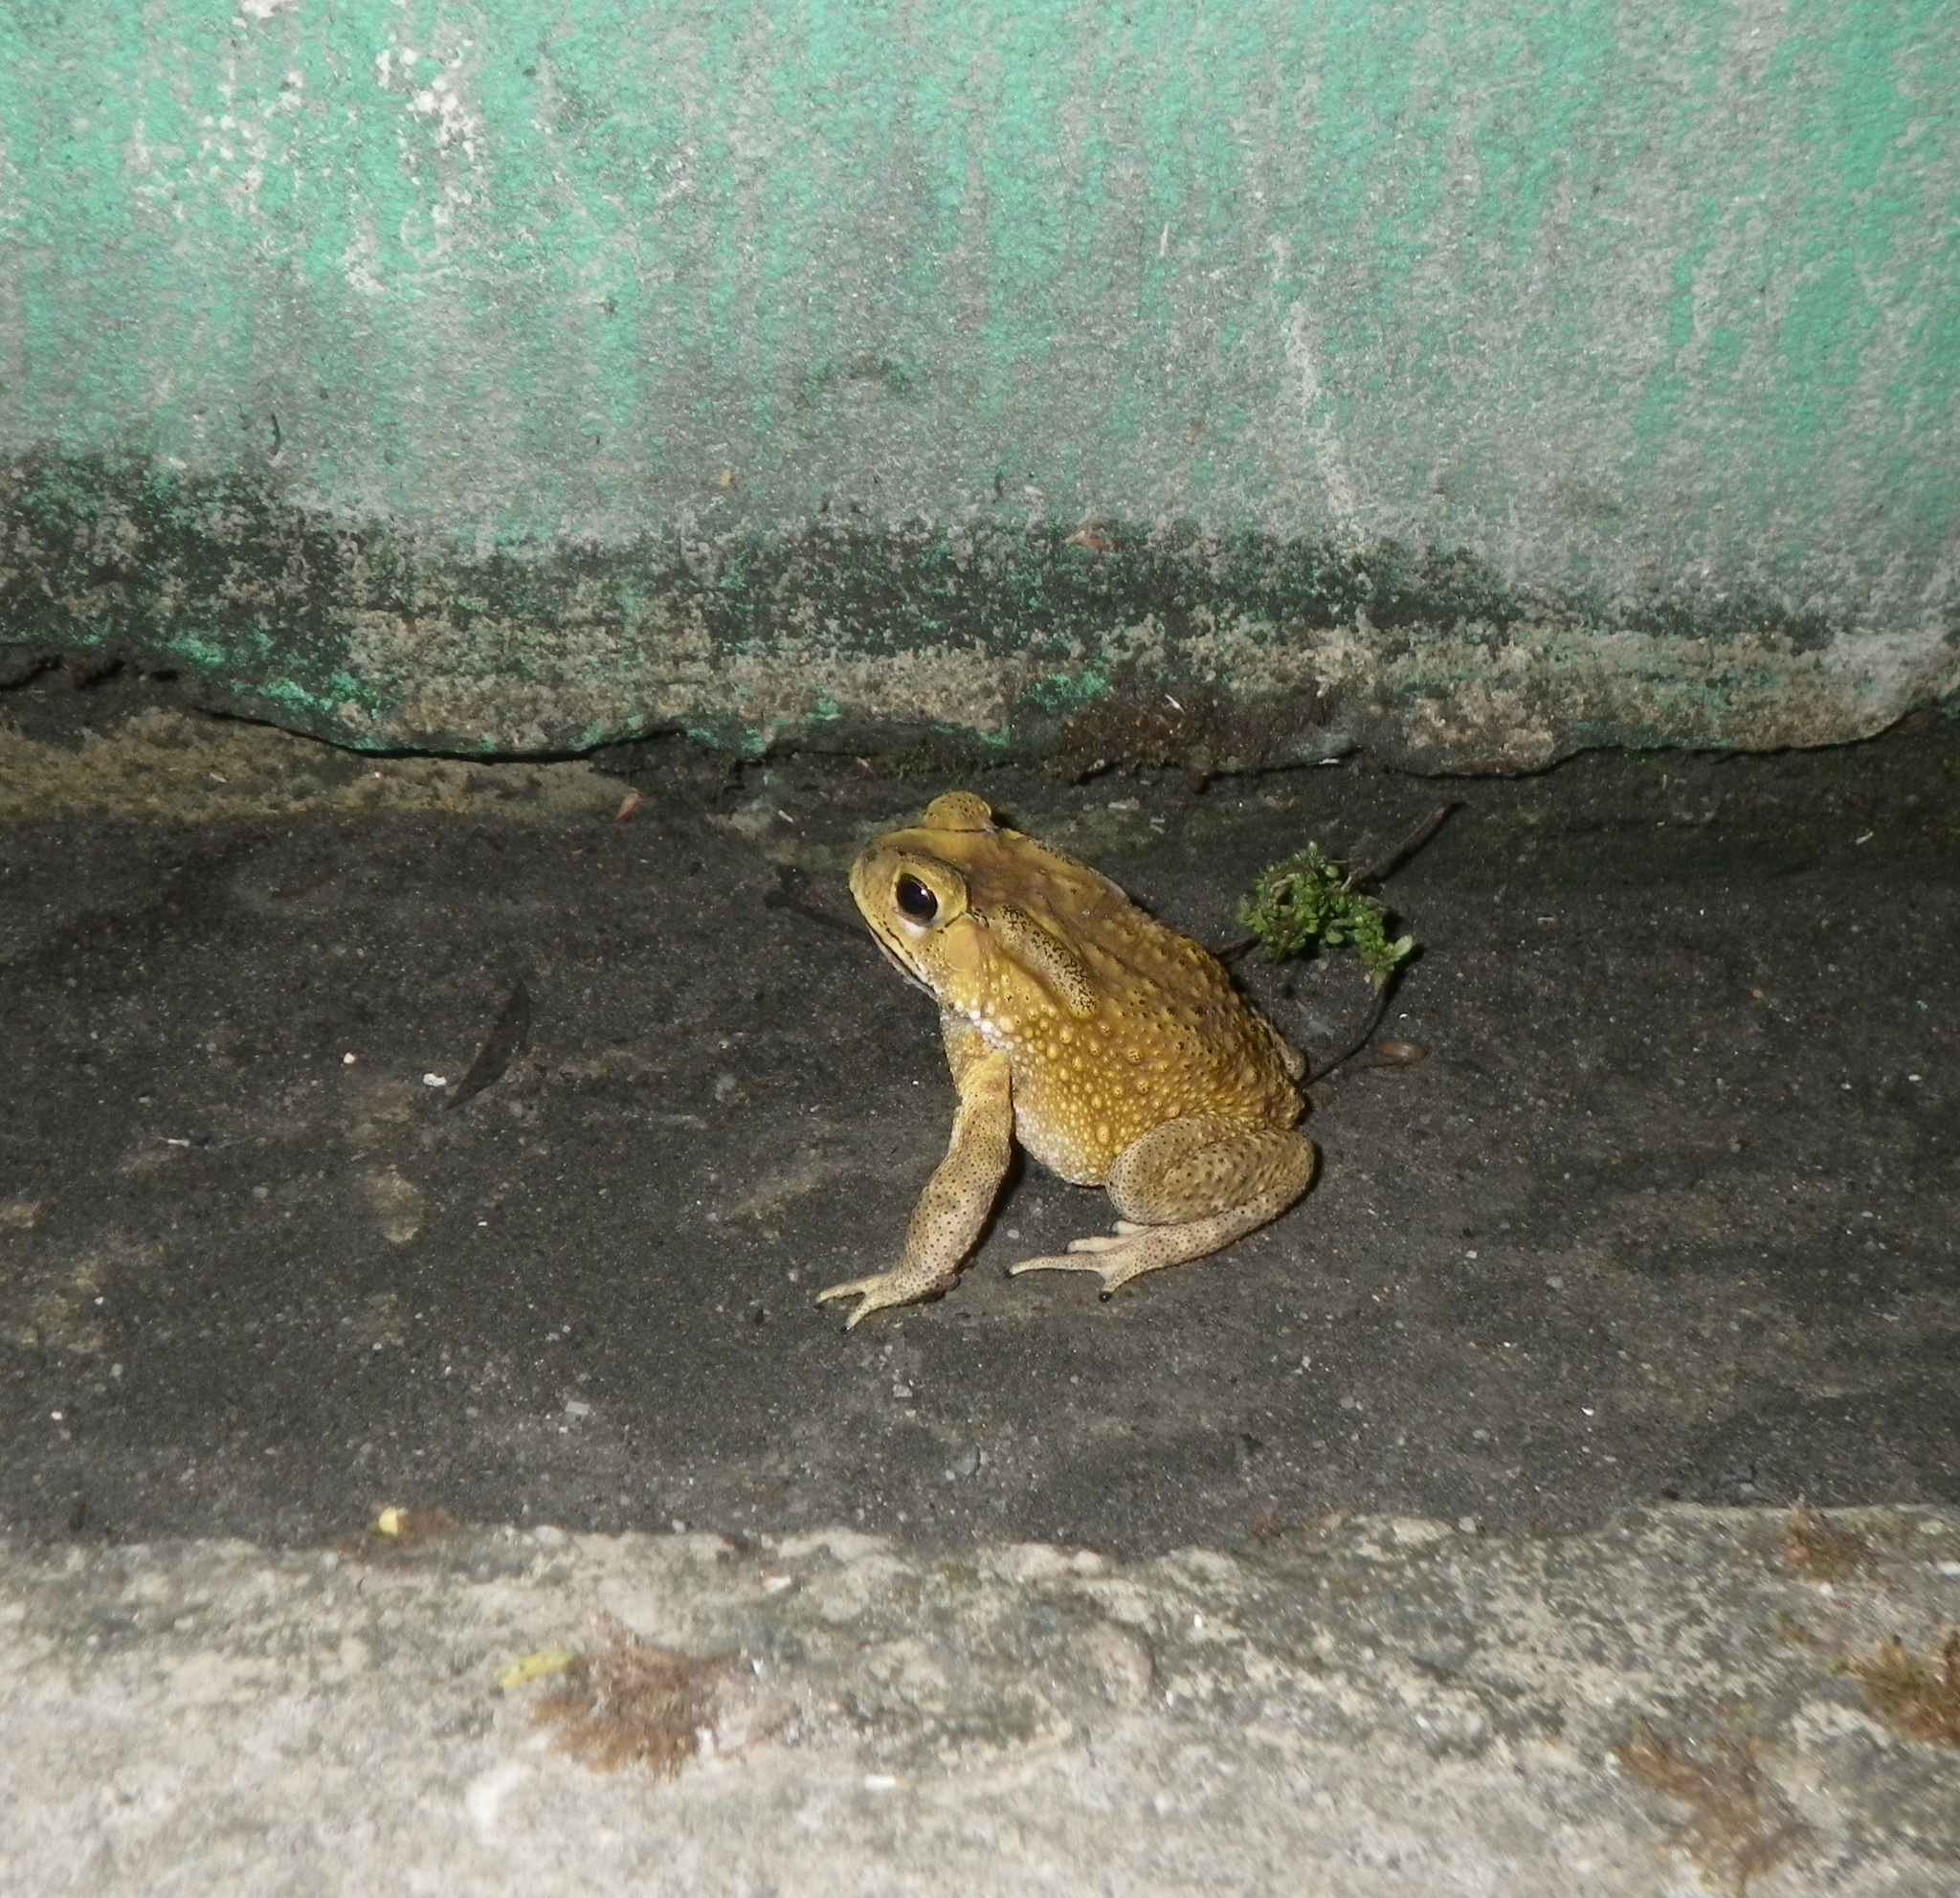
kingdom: Animalia
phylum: Chordata
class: Amphibia
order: Anura
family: Bufonidae
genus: Duttaphrynus
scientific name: Duttaphrynus melanostictus
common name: Common sunda toad
